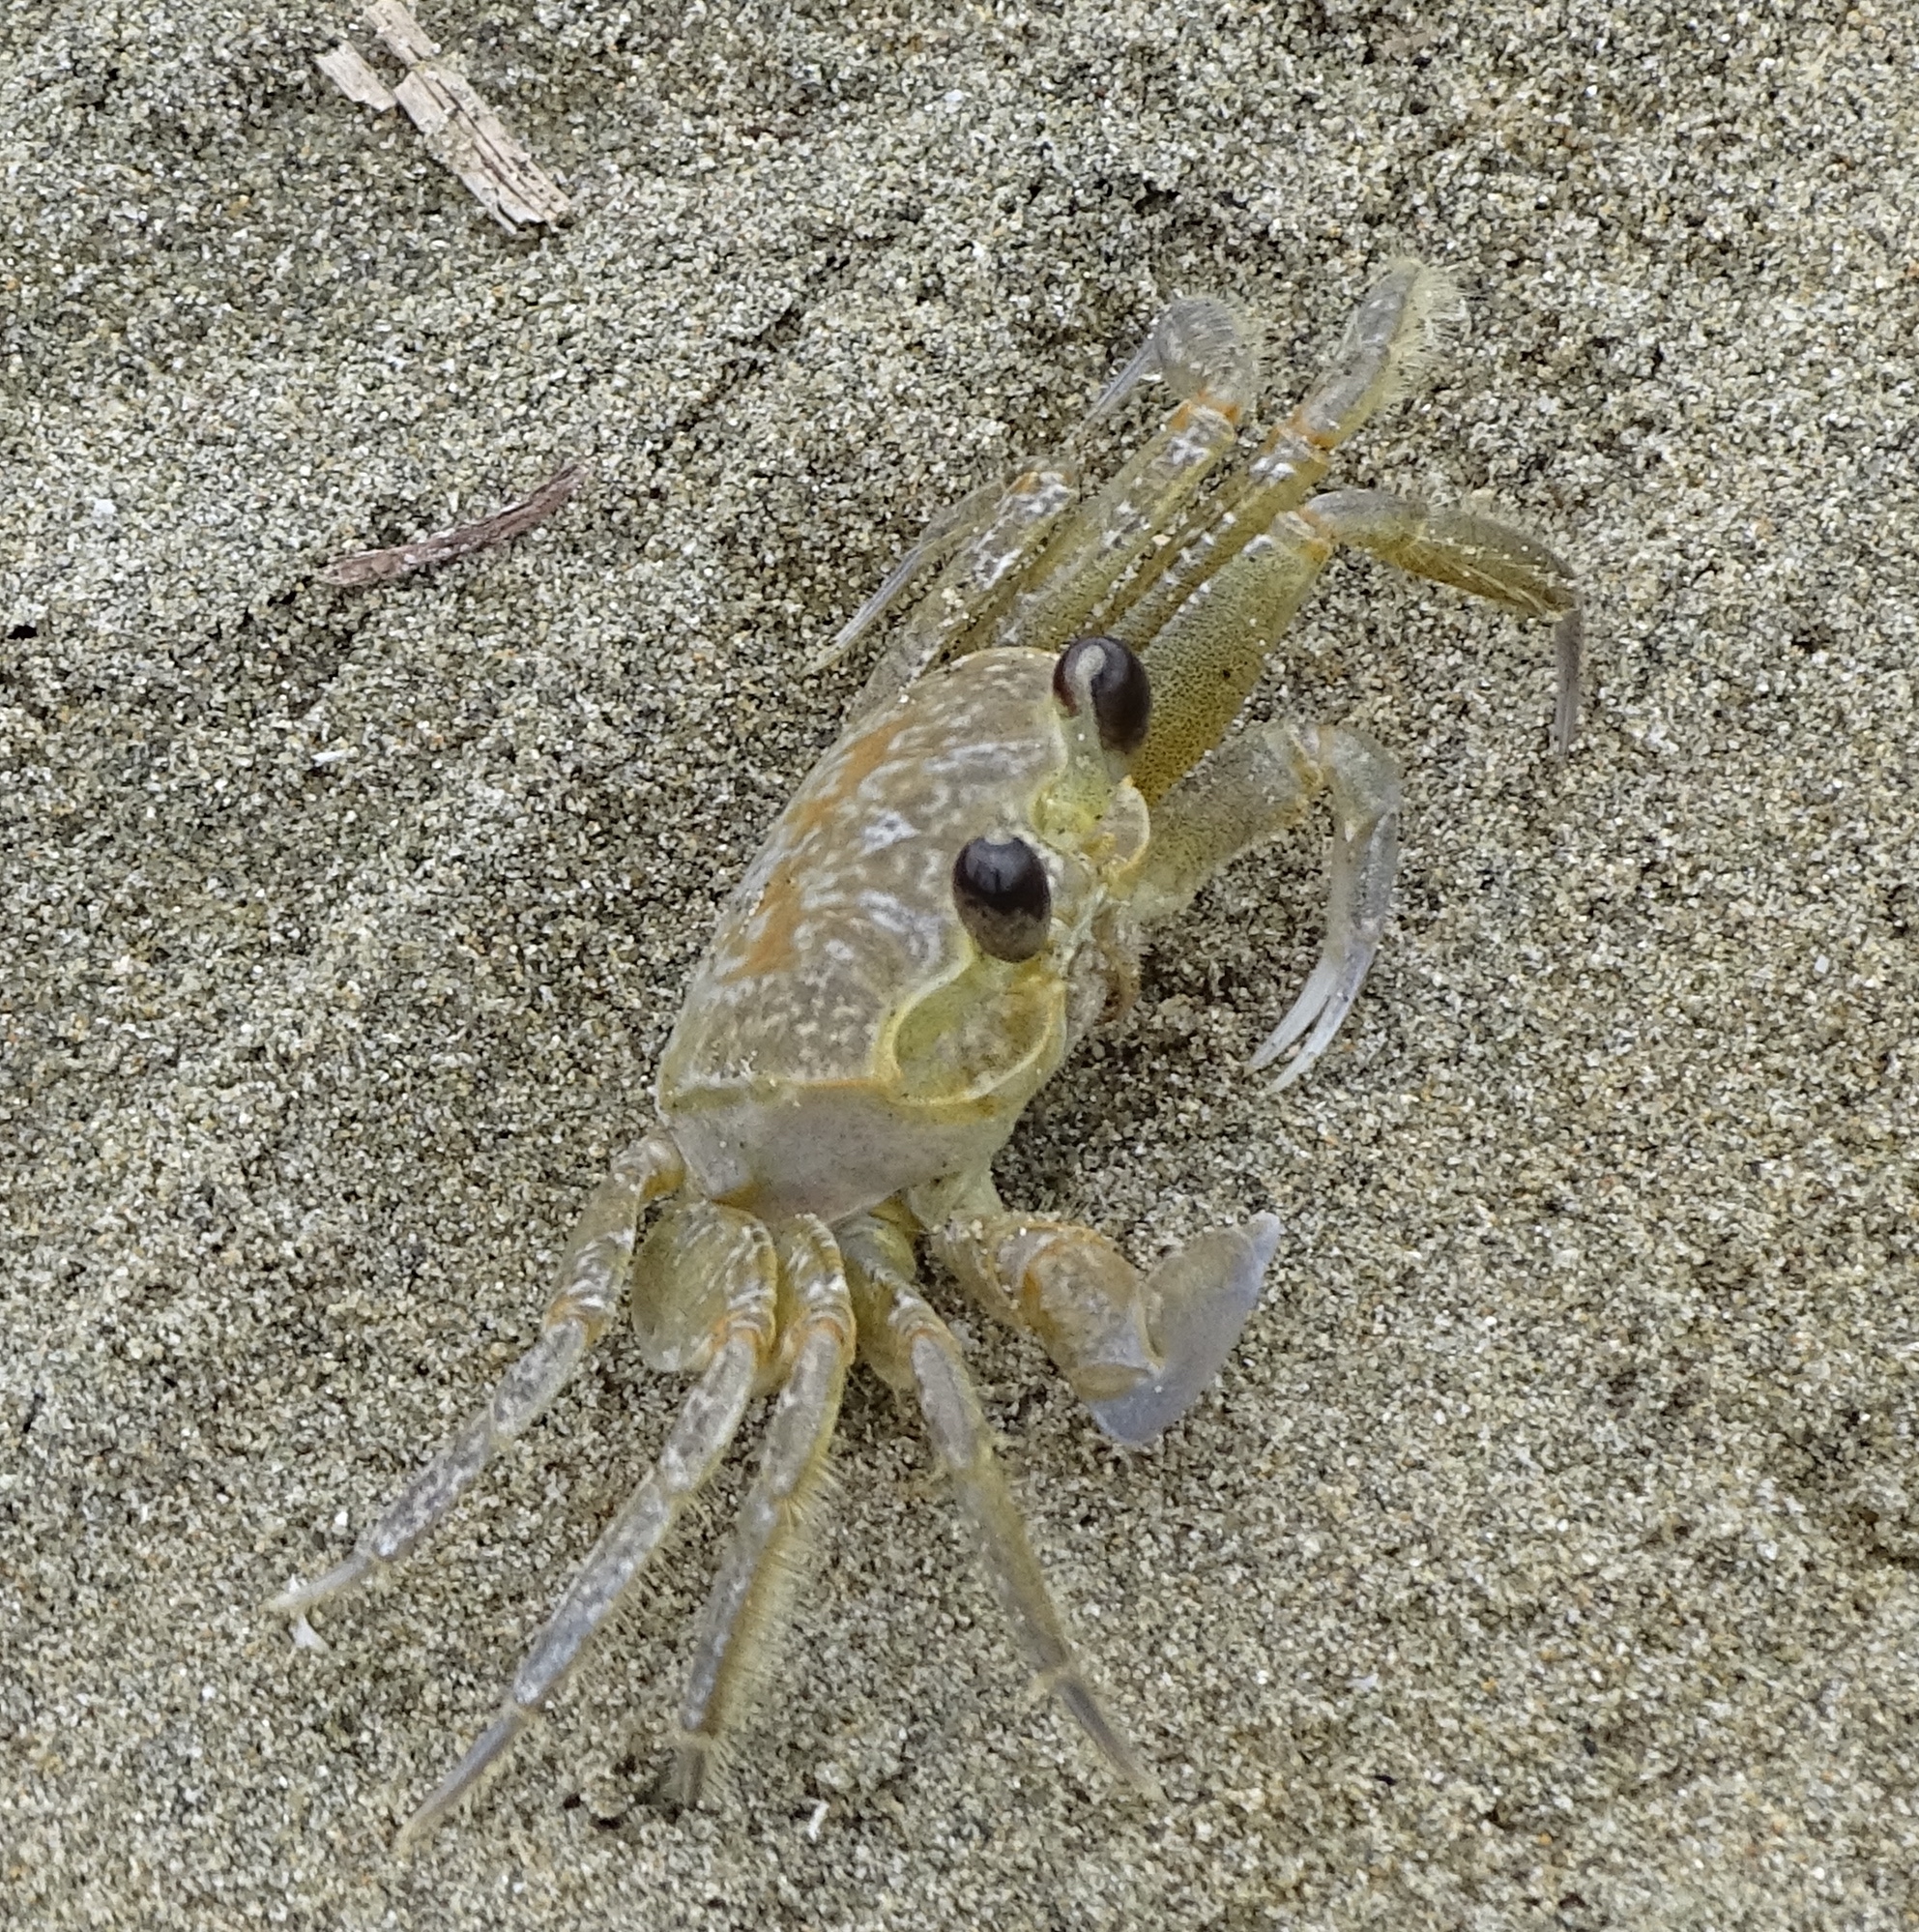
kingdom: Animalia
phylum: Arthropoda
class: Malacostraca
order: Decapoda
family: Ocypodidae
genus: Ocypode
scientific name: Ocypode quadrata
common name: Ghost crab
